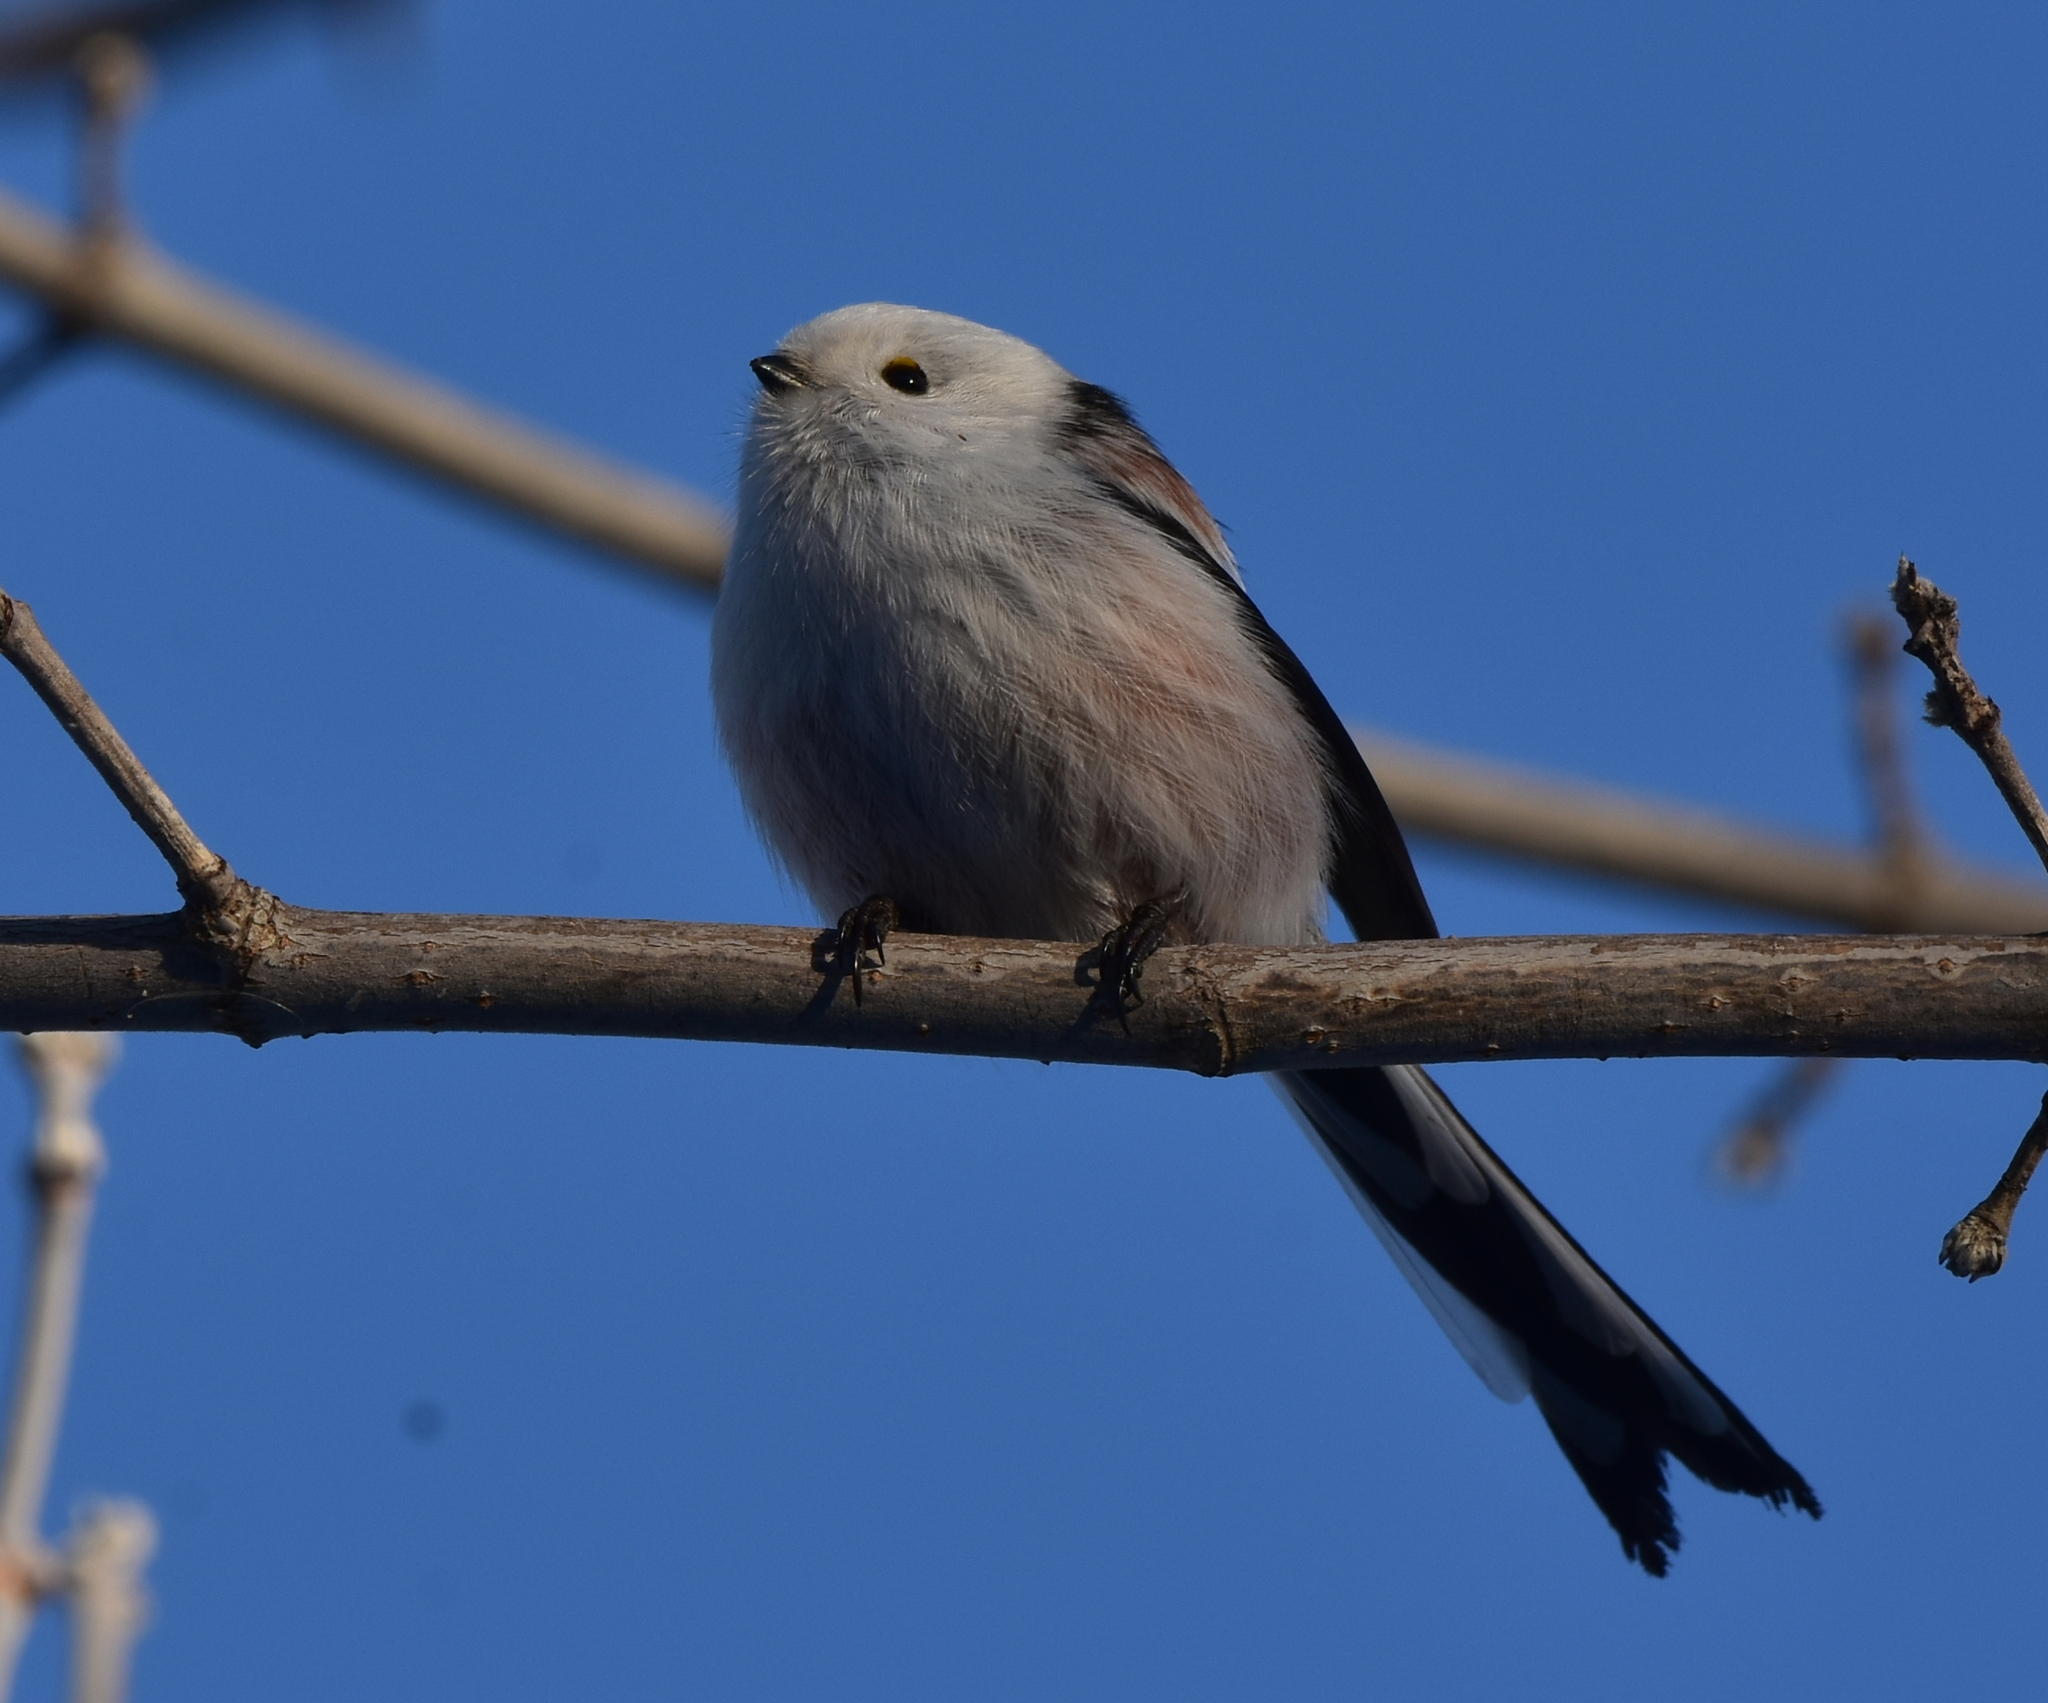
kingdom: Animalia
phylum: Chordata
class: Aves
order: Passeriformes
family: Aegithalidae
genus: Aegithalos
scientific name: Aegithalos caudatus
